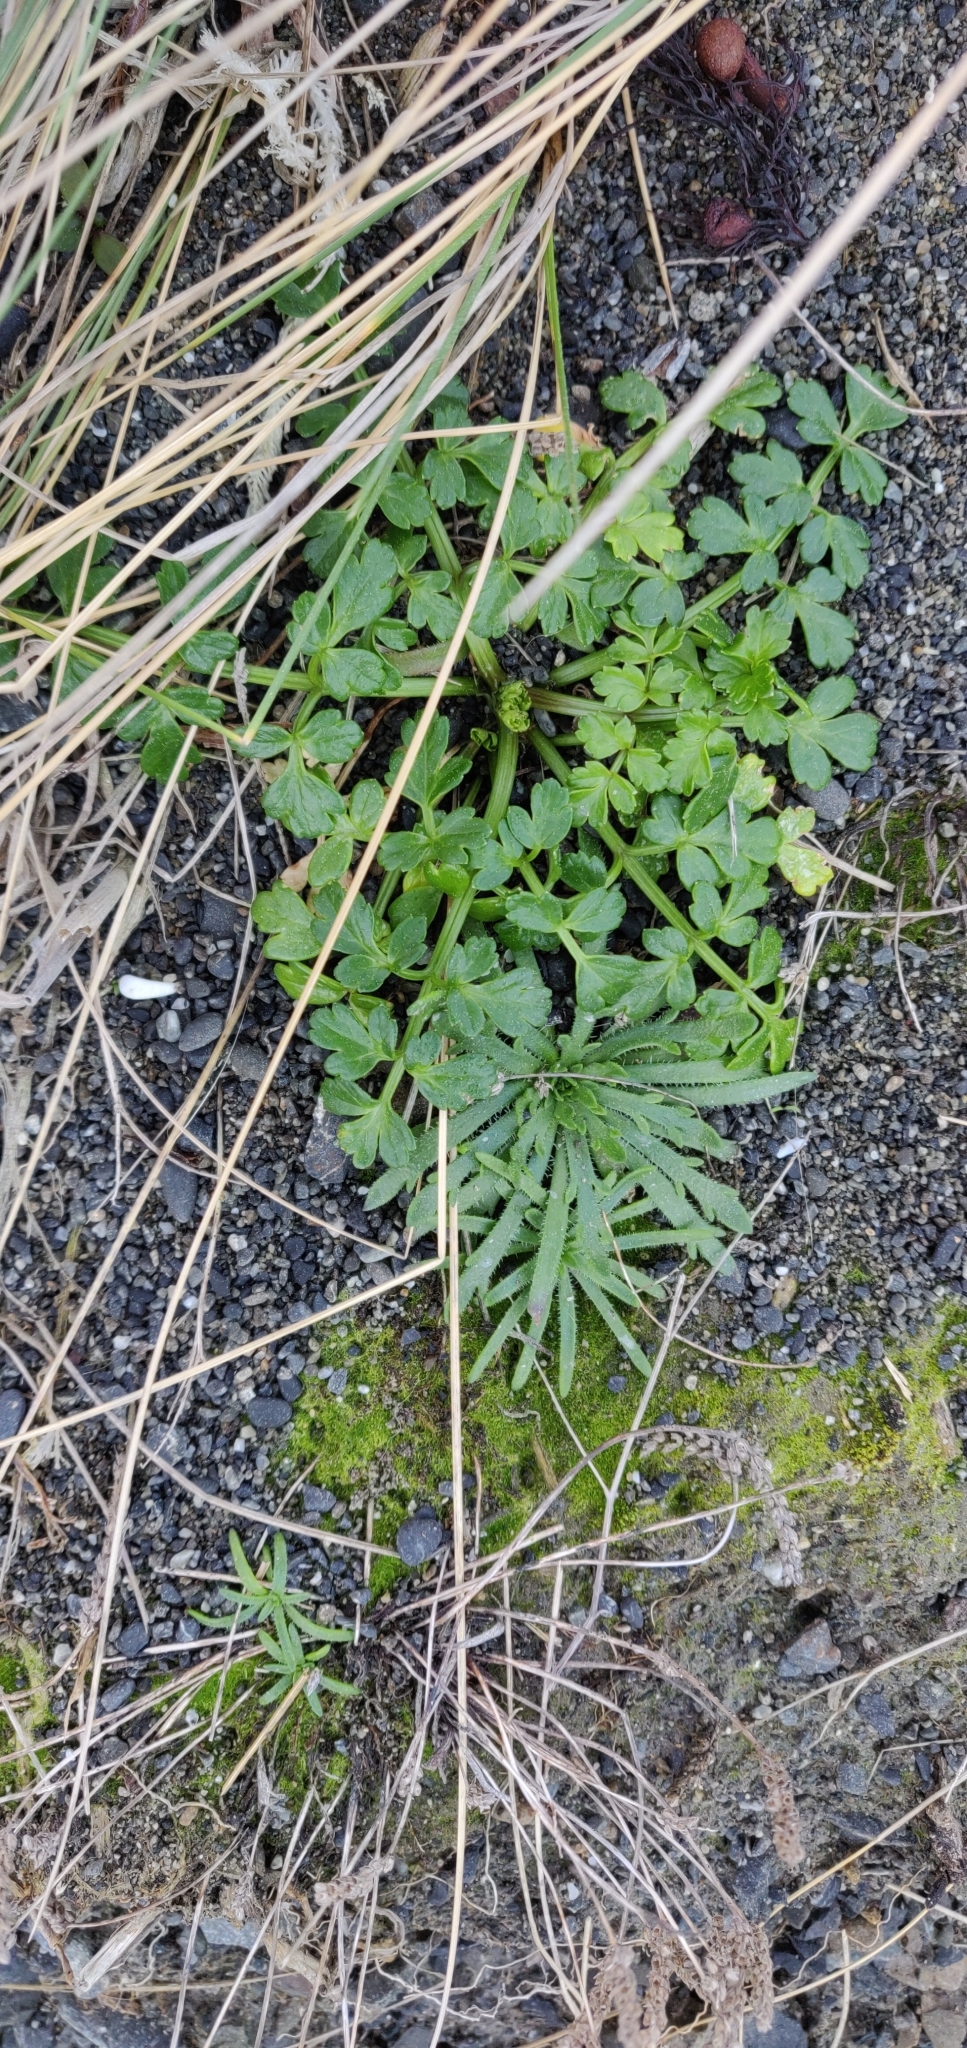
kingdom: Plantae
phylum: Tracheophyta
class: Magnoliopsida
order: Apiales
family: Apiaceae
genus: Apium
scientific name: Apium prostratum
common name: Prostrate marshwort
